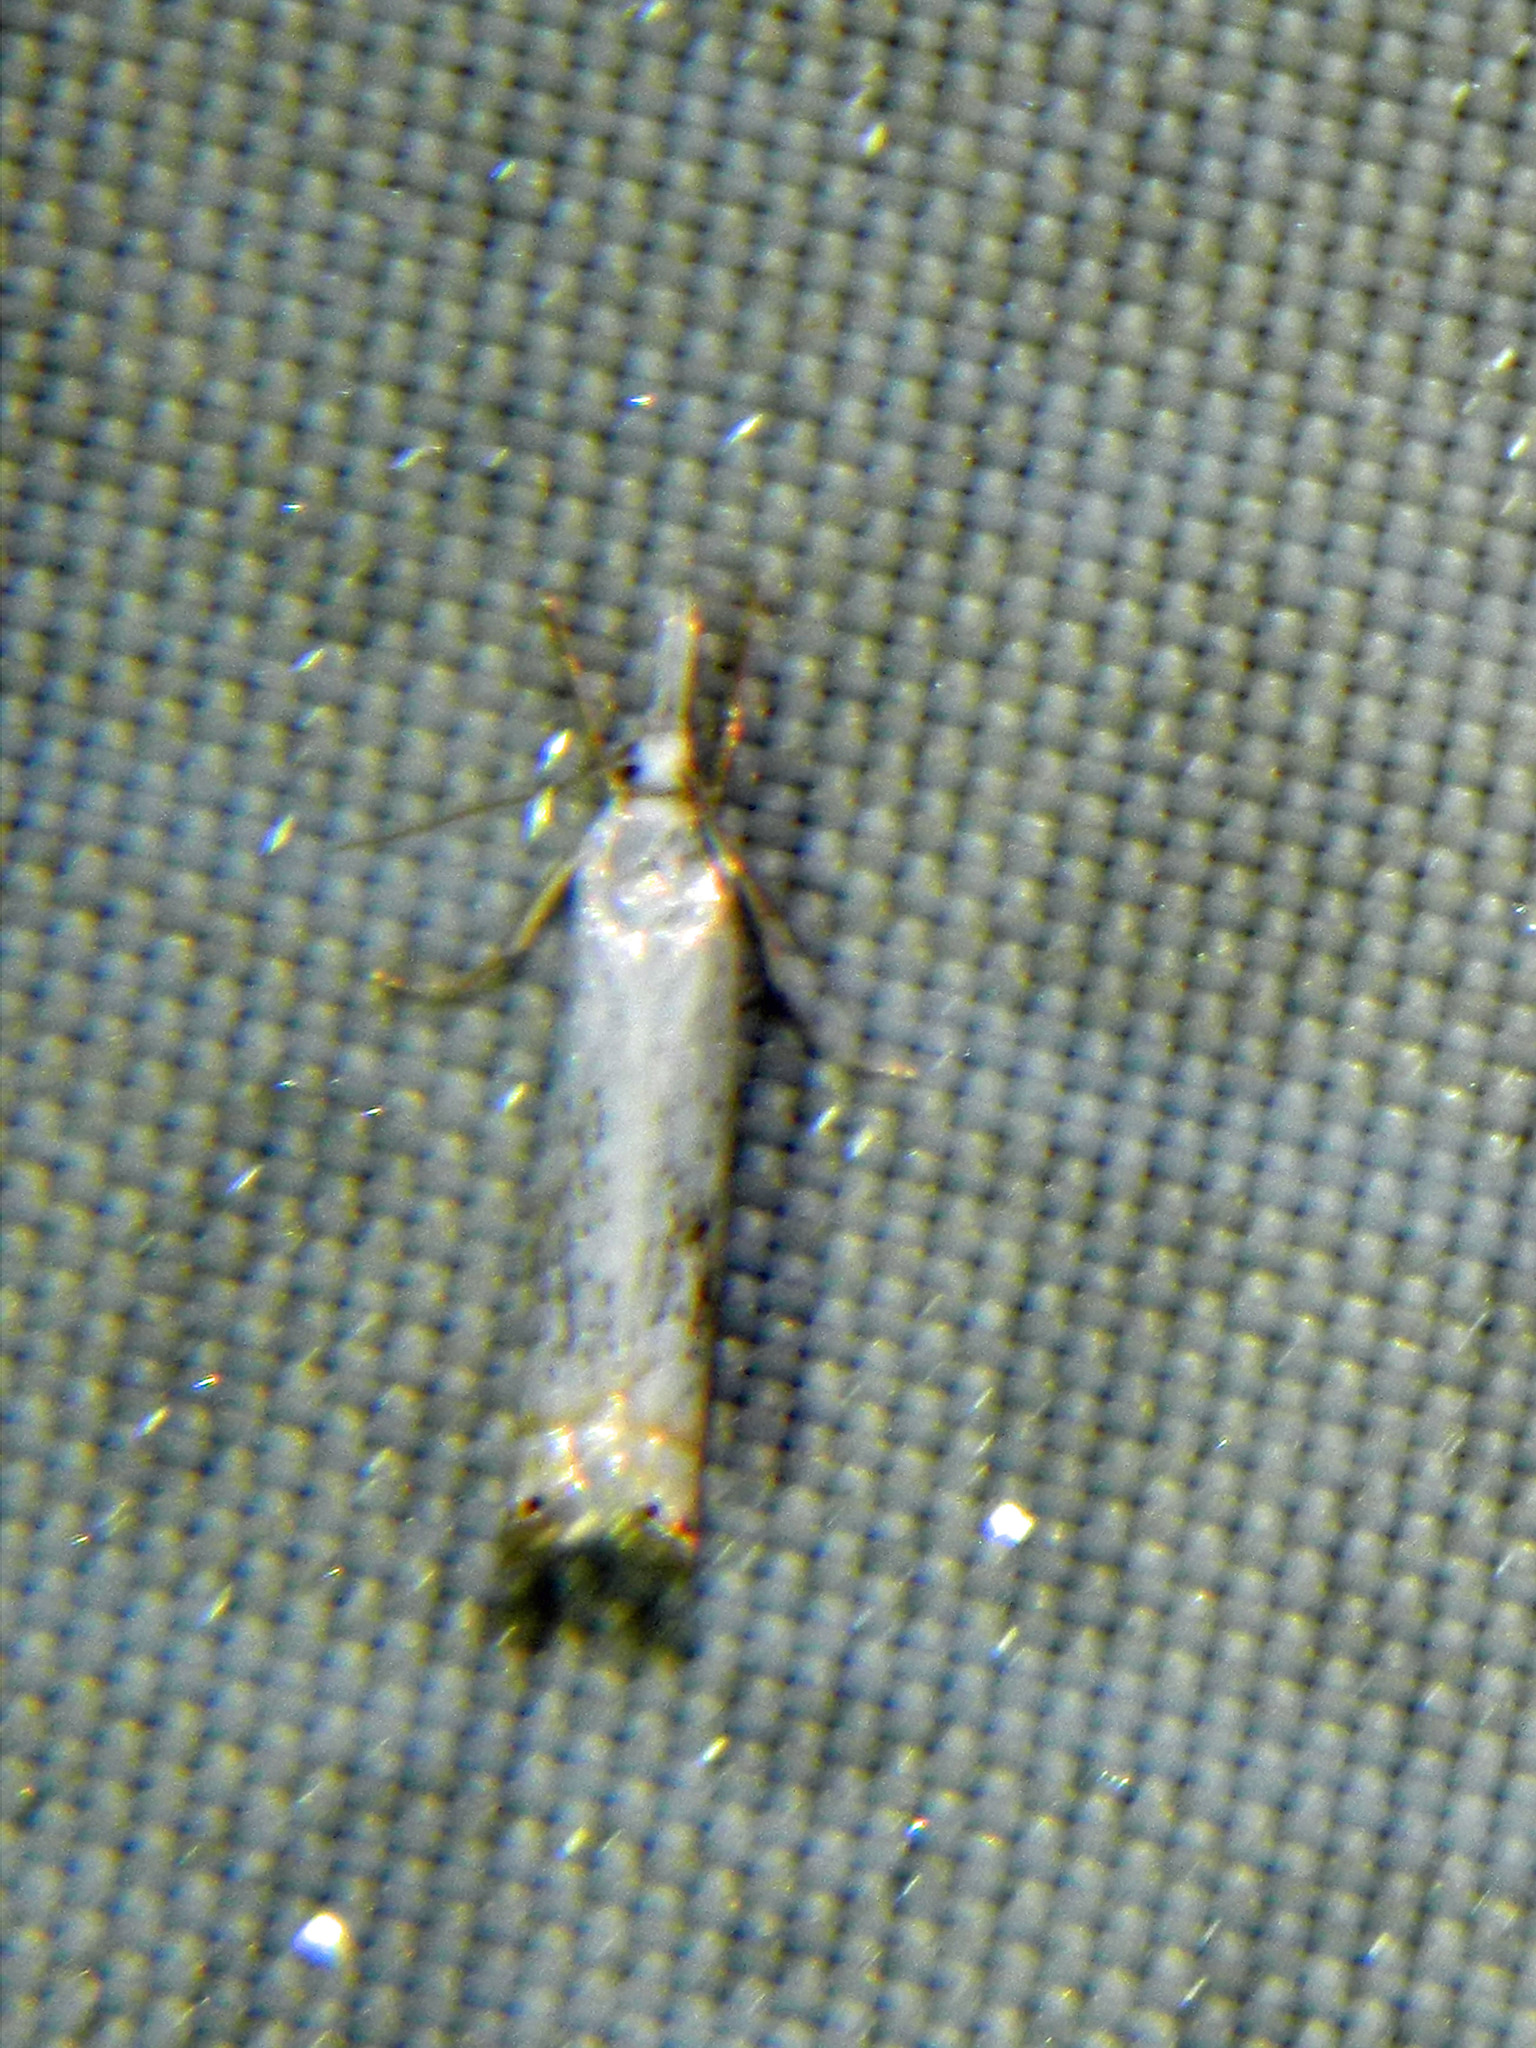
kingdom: Animalia
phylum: Arthropoda
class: Insecta
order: Lepidoptera
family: Crambidae
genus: Crambus
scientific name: Crambus albellus
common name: Small white grass-veneer
